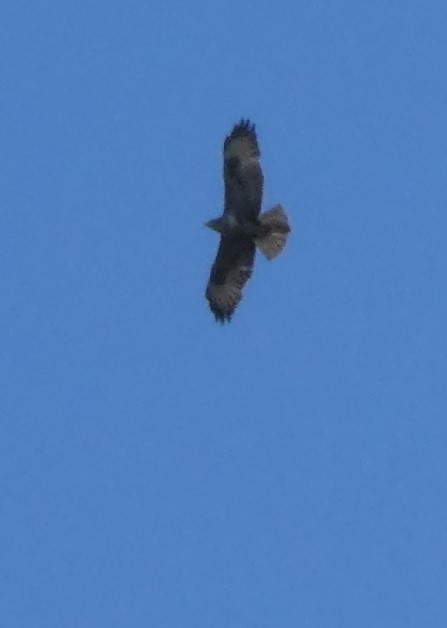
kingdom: Animalia
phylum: Chordata
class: Aves
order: Accipitriformes
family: Accipitridae
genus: Buteo
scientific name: Buteo buteo
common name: Common buzzard
